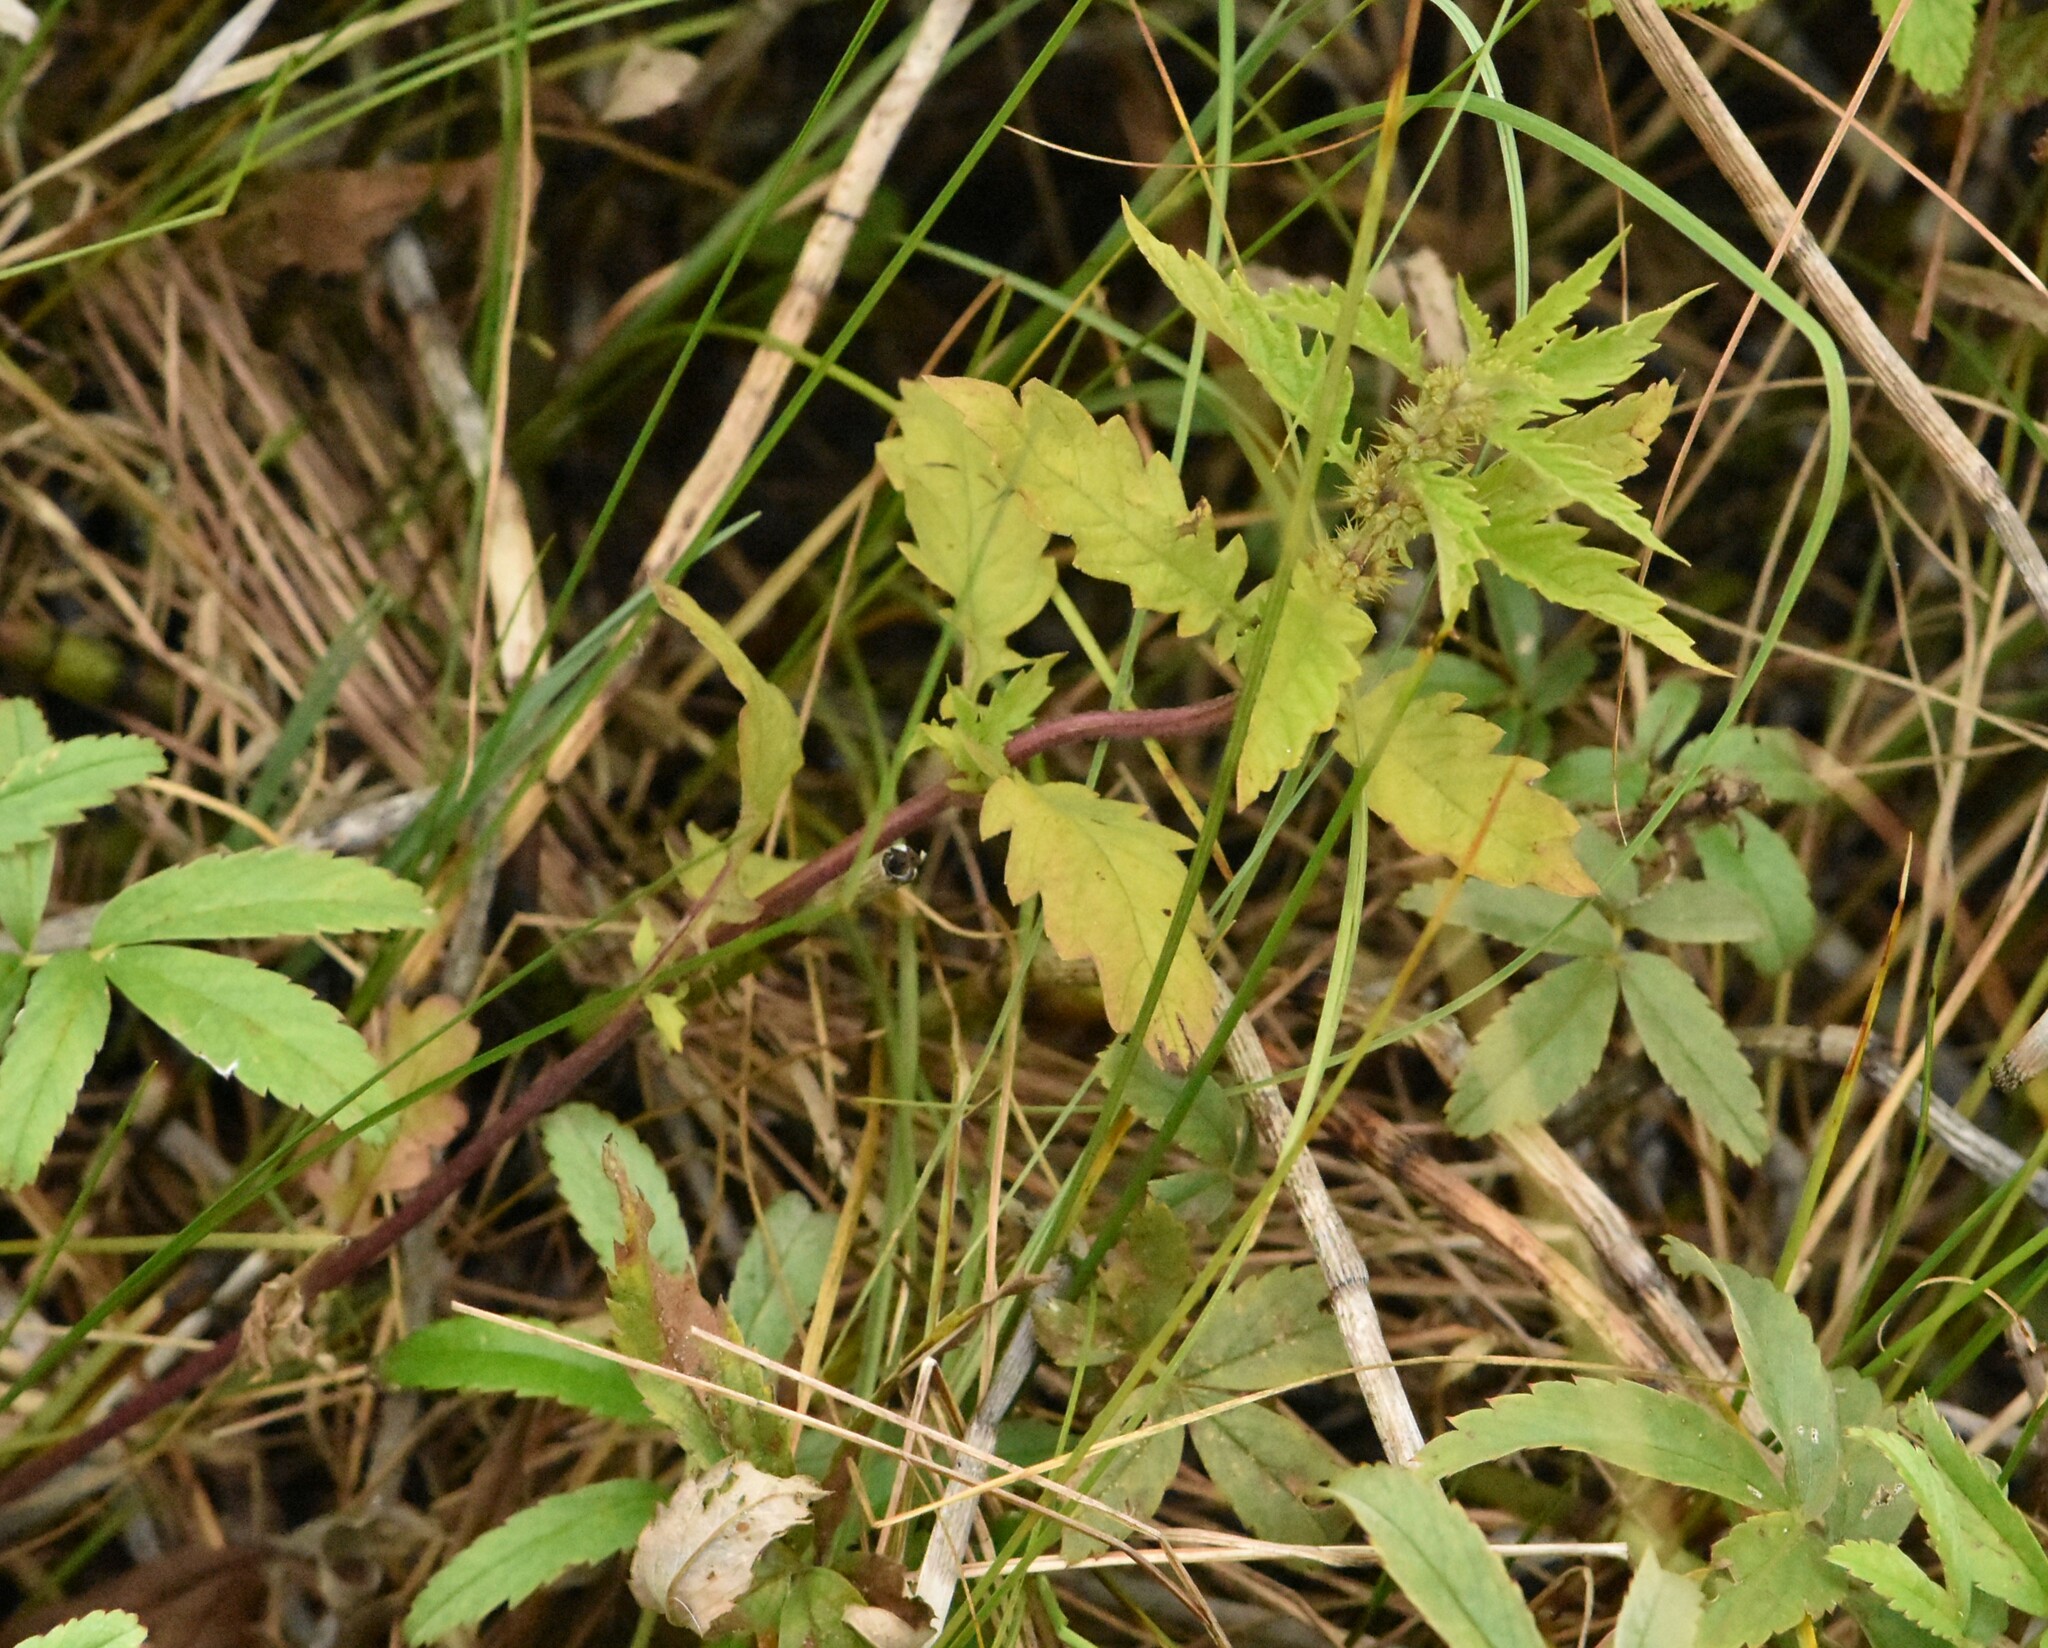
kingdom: Plantae
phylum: Tracheophyta
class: Magnoliopsida
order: Lamiales
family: Lamiaceae
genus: Lycopus
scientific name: Lycopus europaeus
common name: European bugleweed
